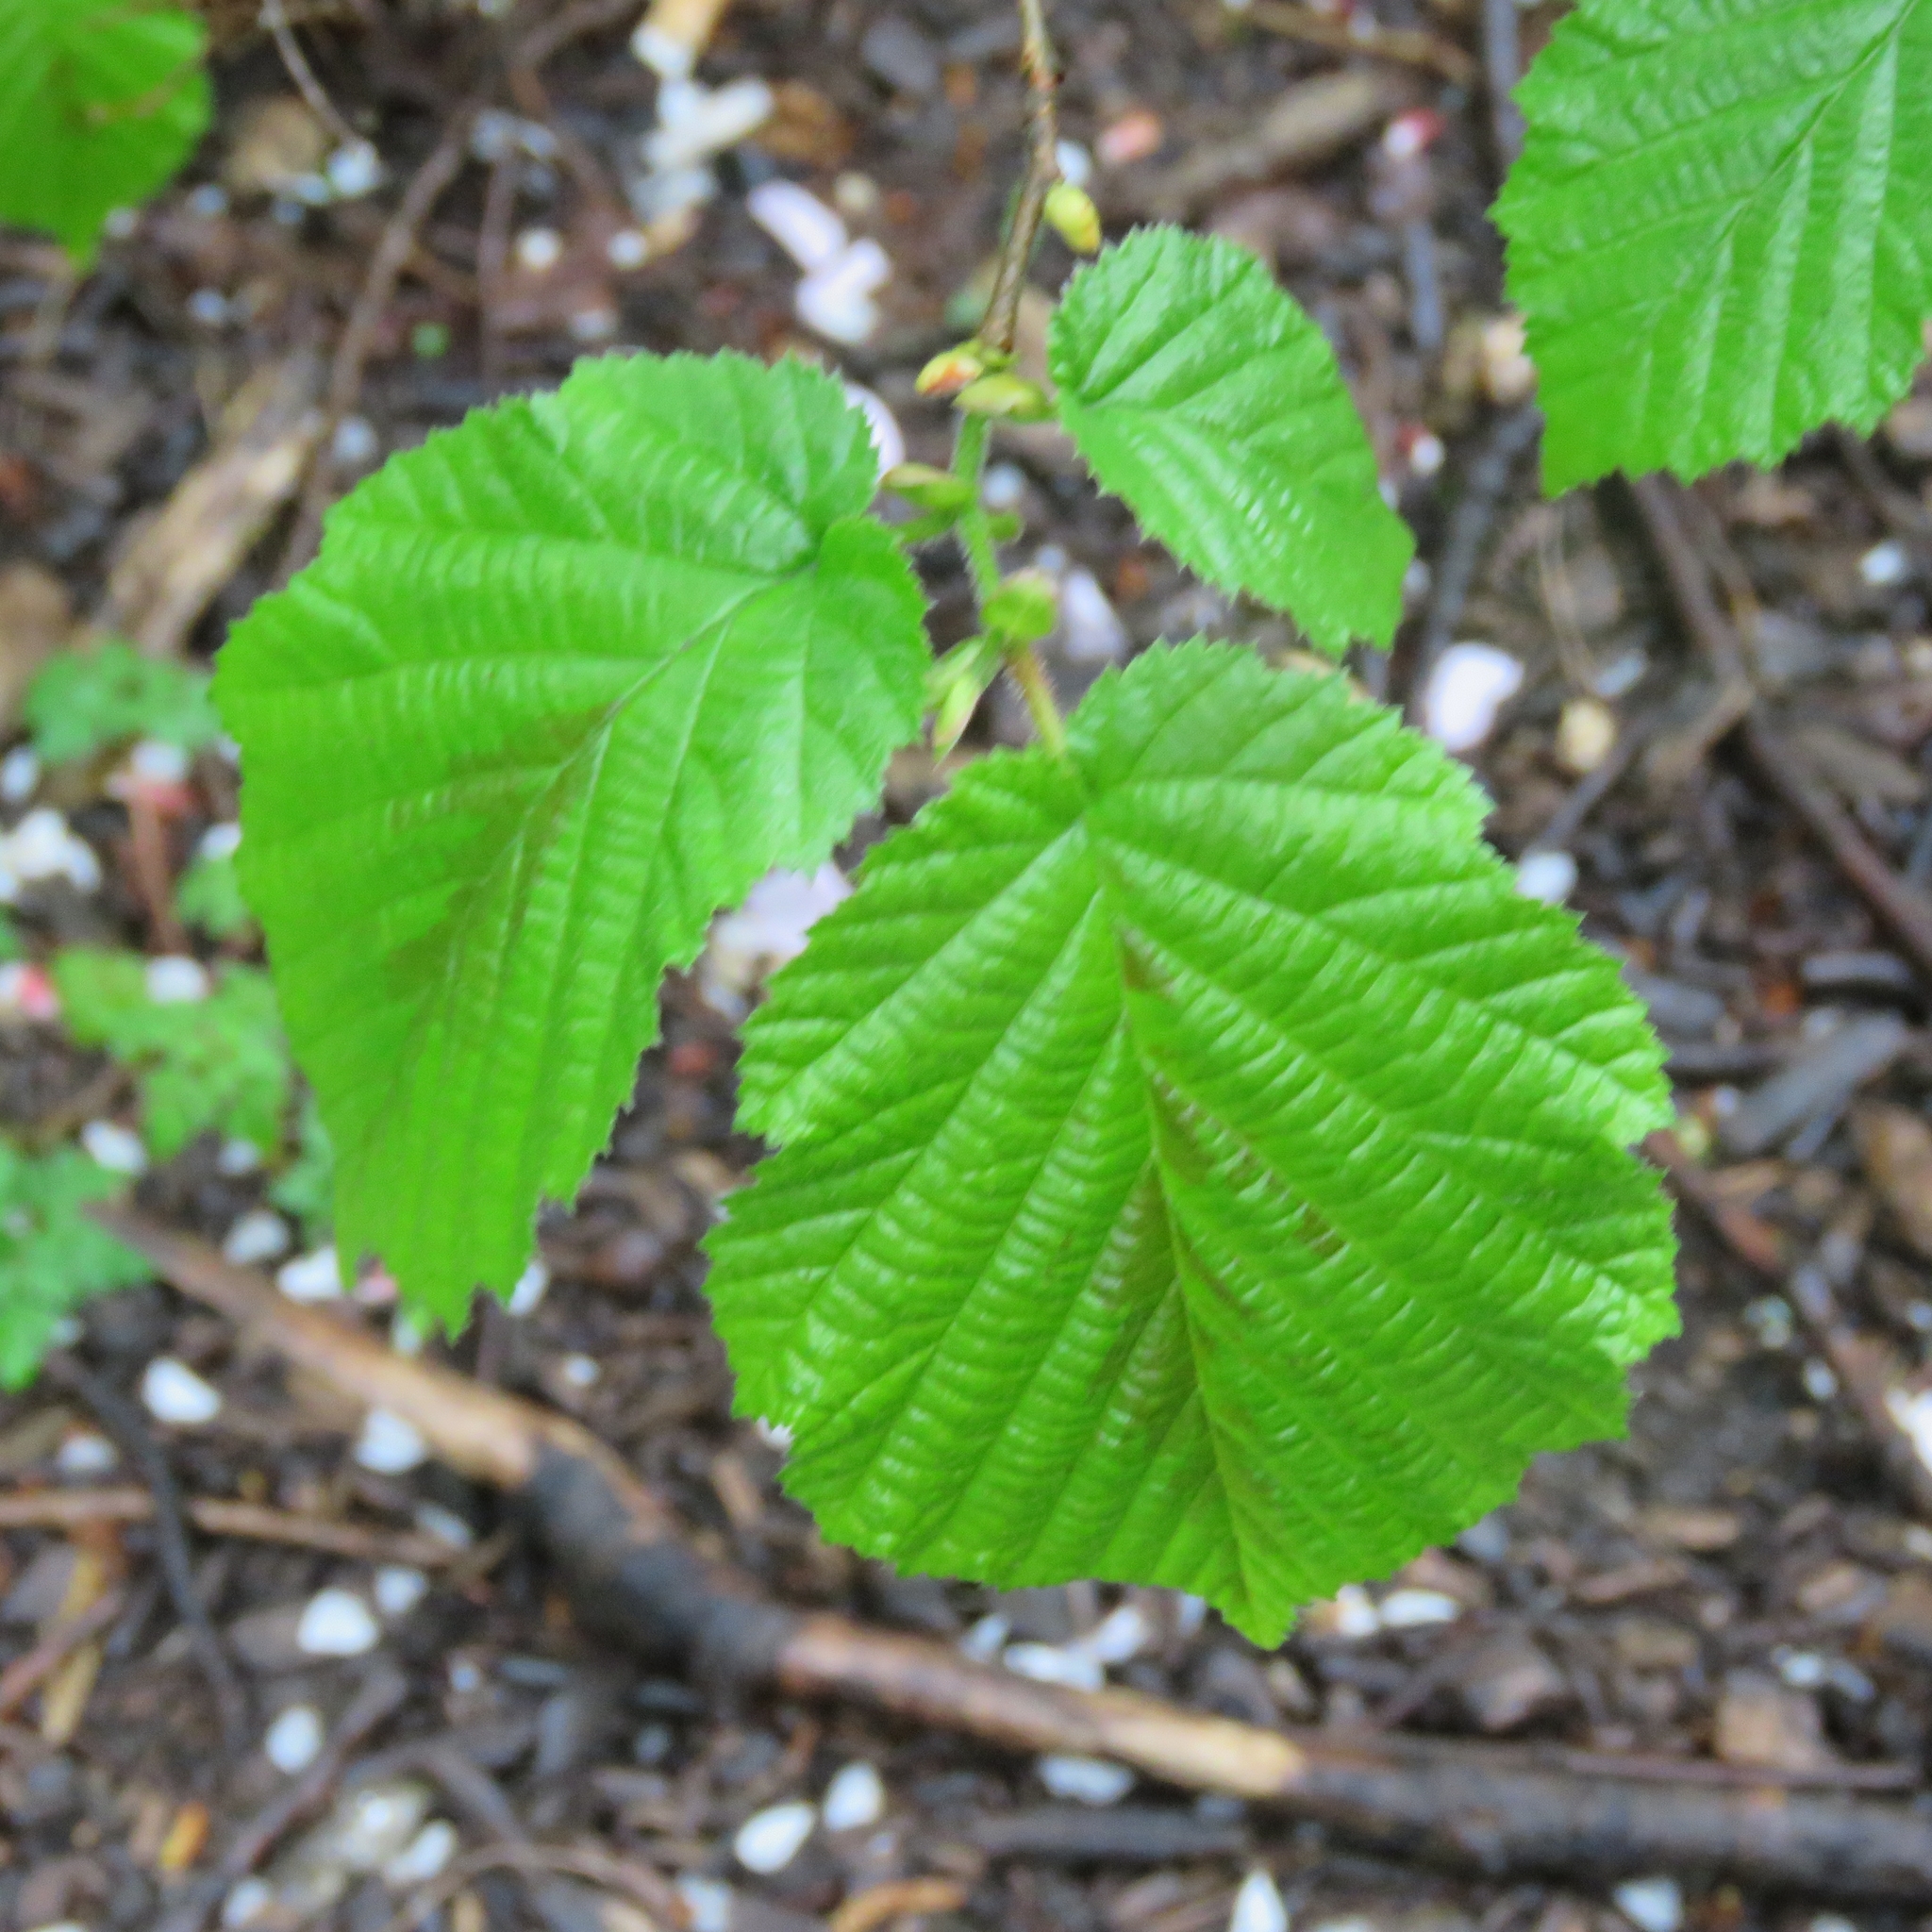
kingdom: Plantae
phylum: Tracheophyta
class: Magnoliopsida
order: Fagales
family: Betulaceae
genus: Corylus
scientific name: Corylus avellana
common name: European hazel
